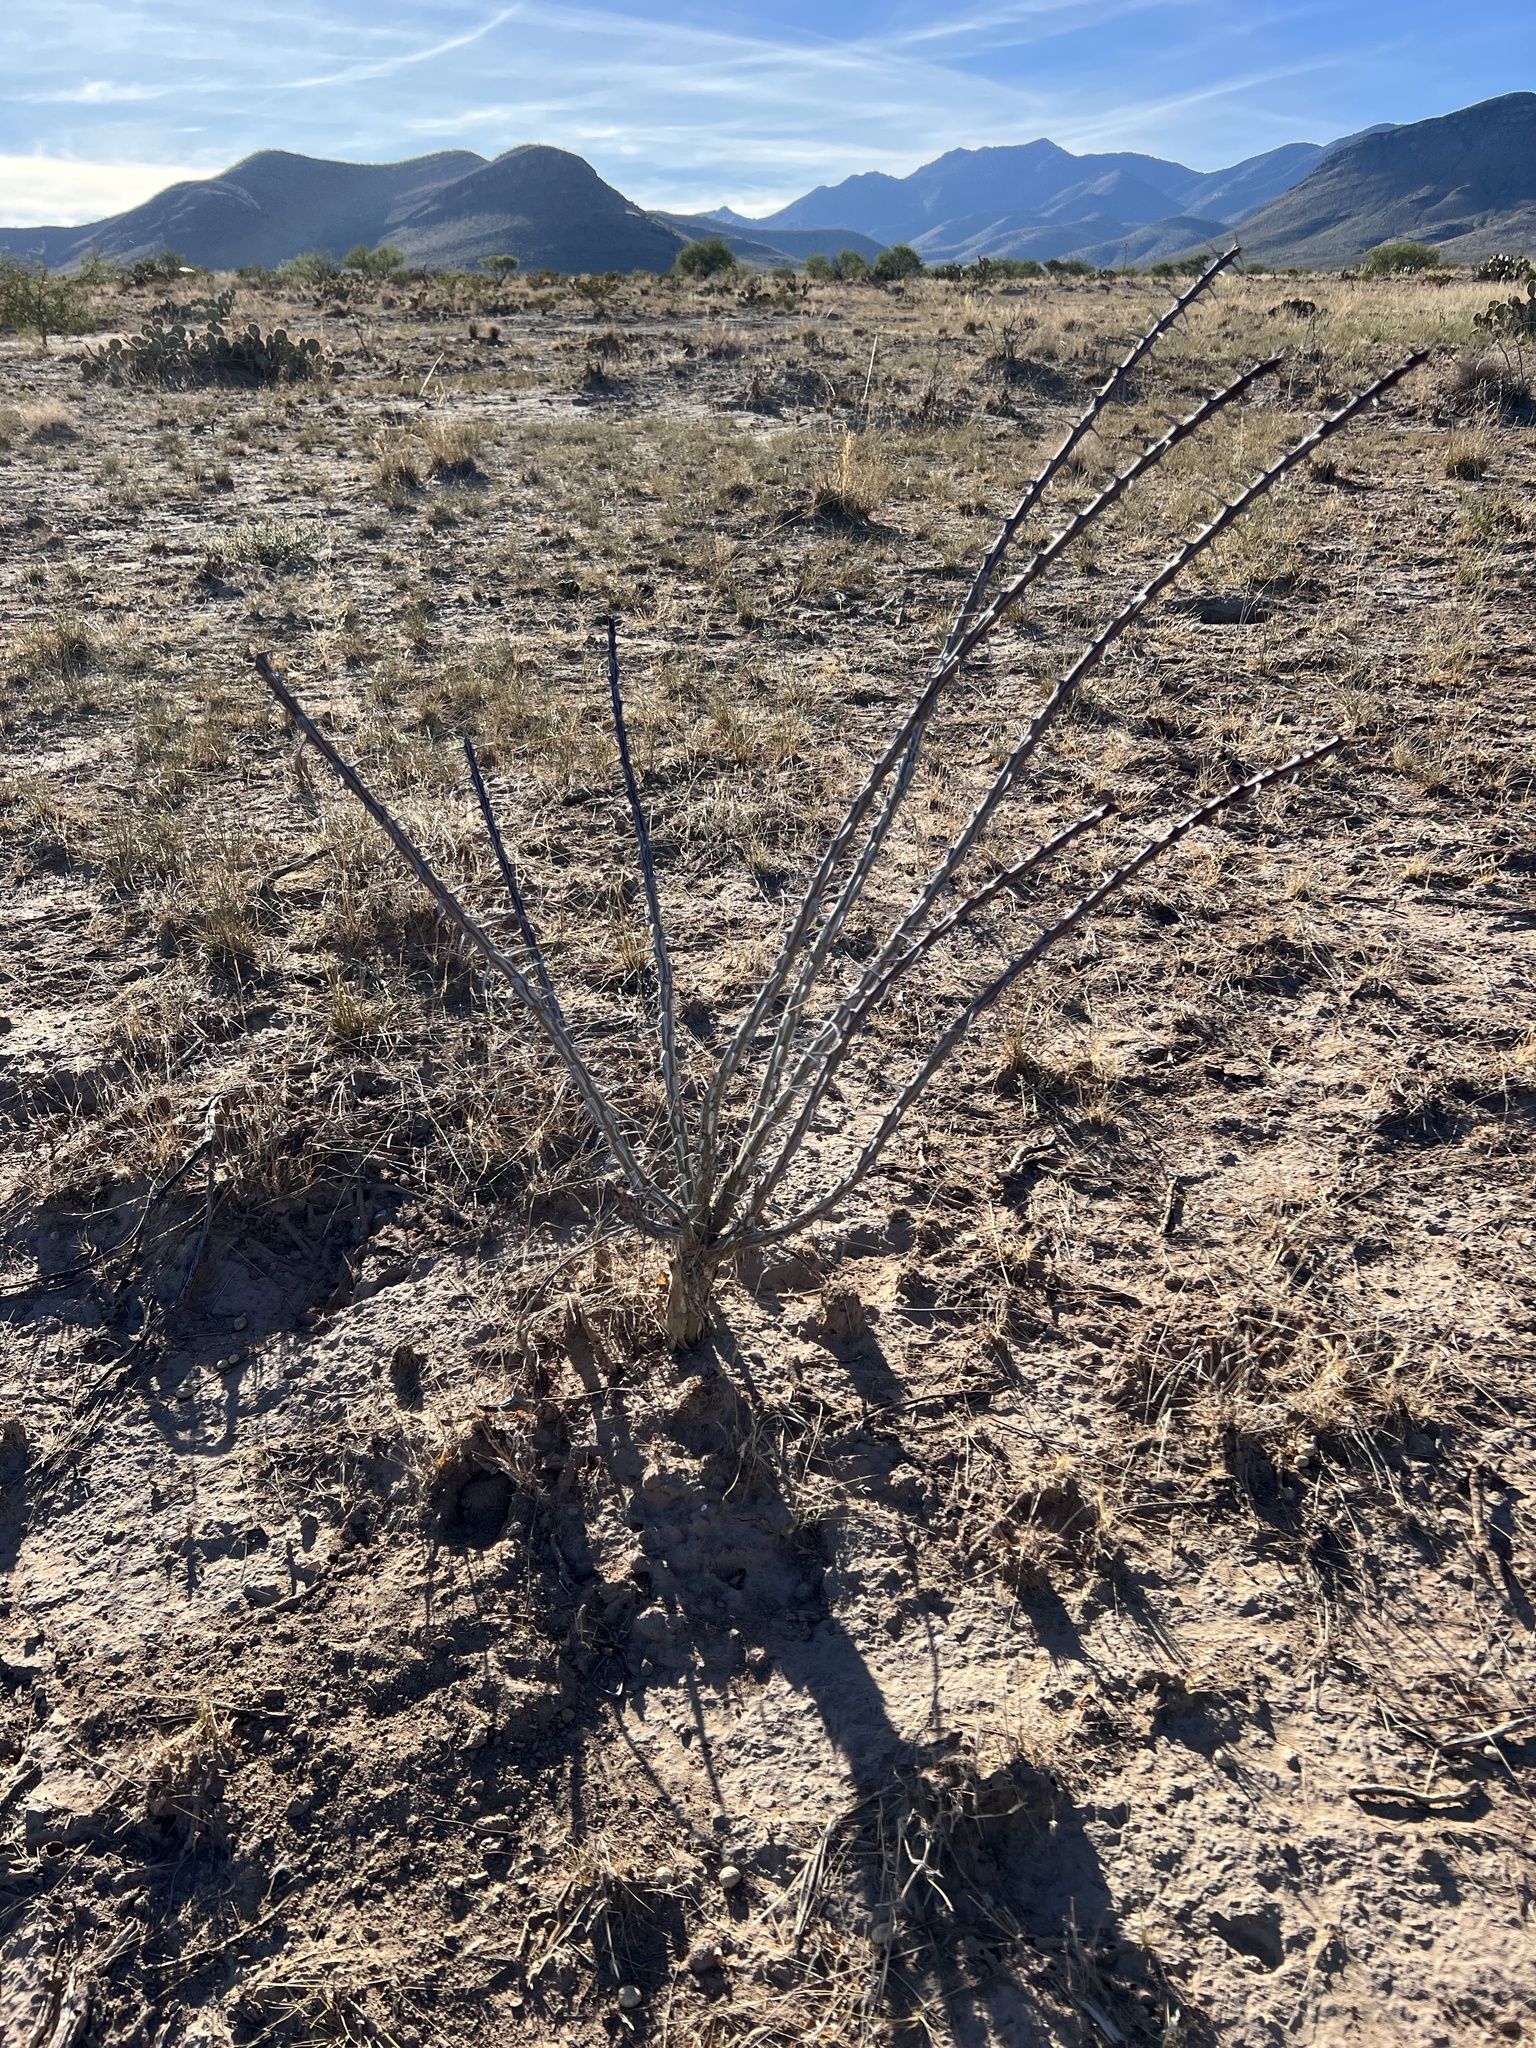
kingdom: Plantae
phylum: Tracheophyta
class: Magnoliopsida
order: Ericales
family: Fouquieriaceae
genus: Fouquieria
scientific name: Fouquieria splendens
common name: Vine-cactus
